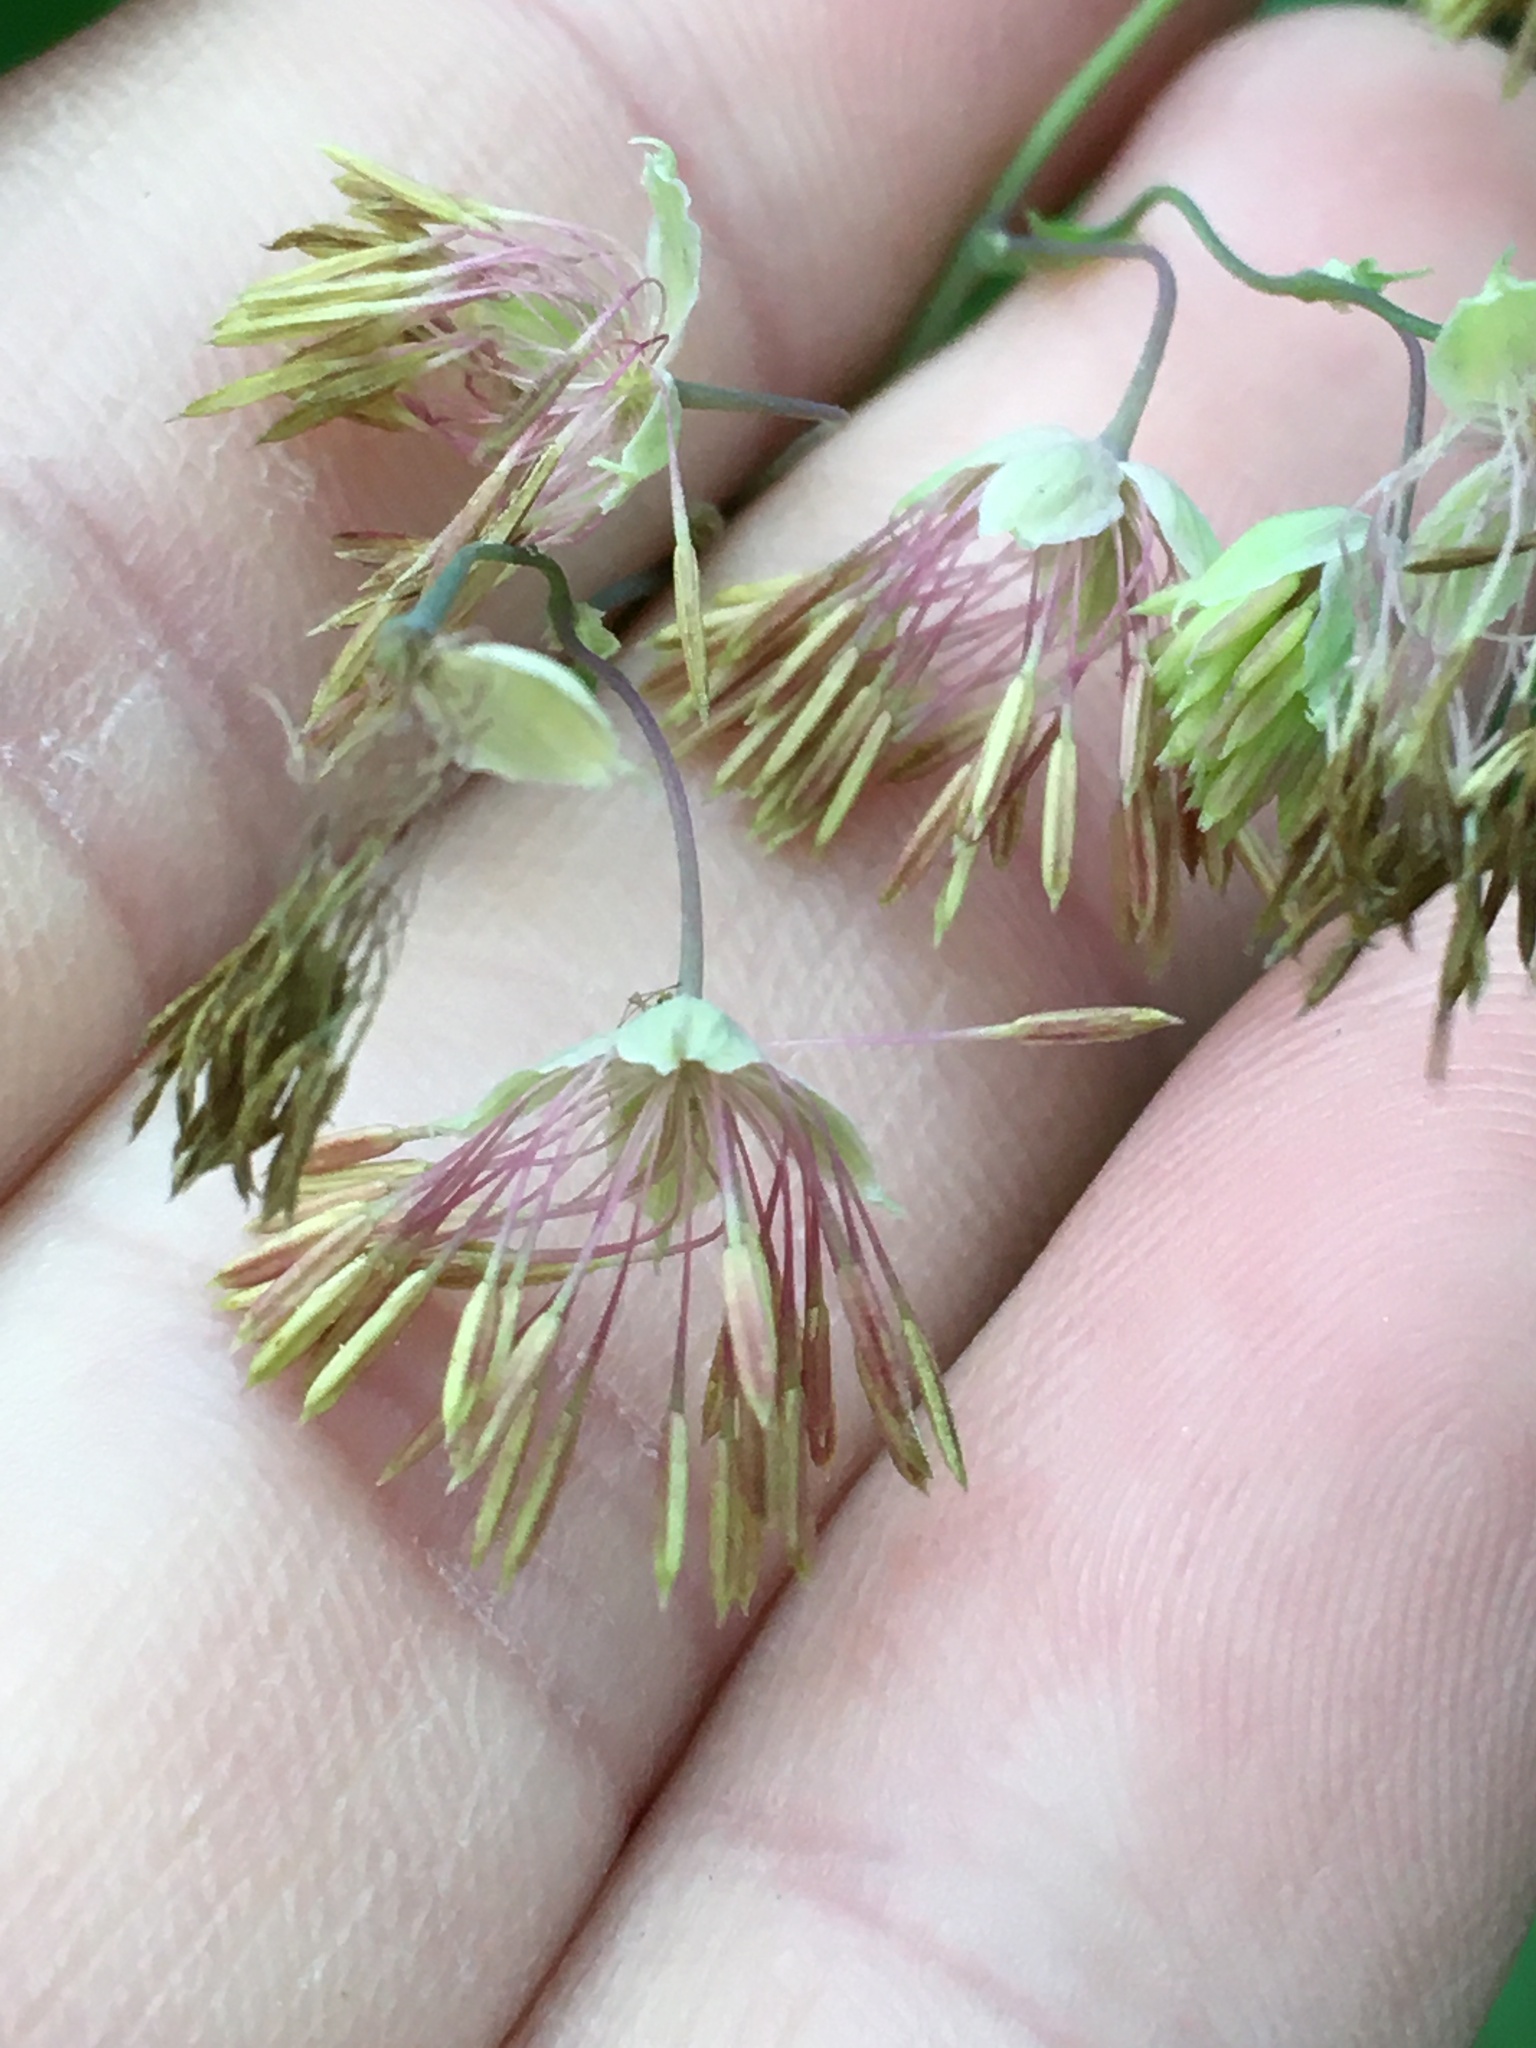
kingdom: Plantae
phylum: Tracheophyta
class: Magnoliopsida
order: Ranunculales
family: Ranunculaceae
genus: Thalictrum
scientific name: Thalictrum fendleri
